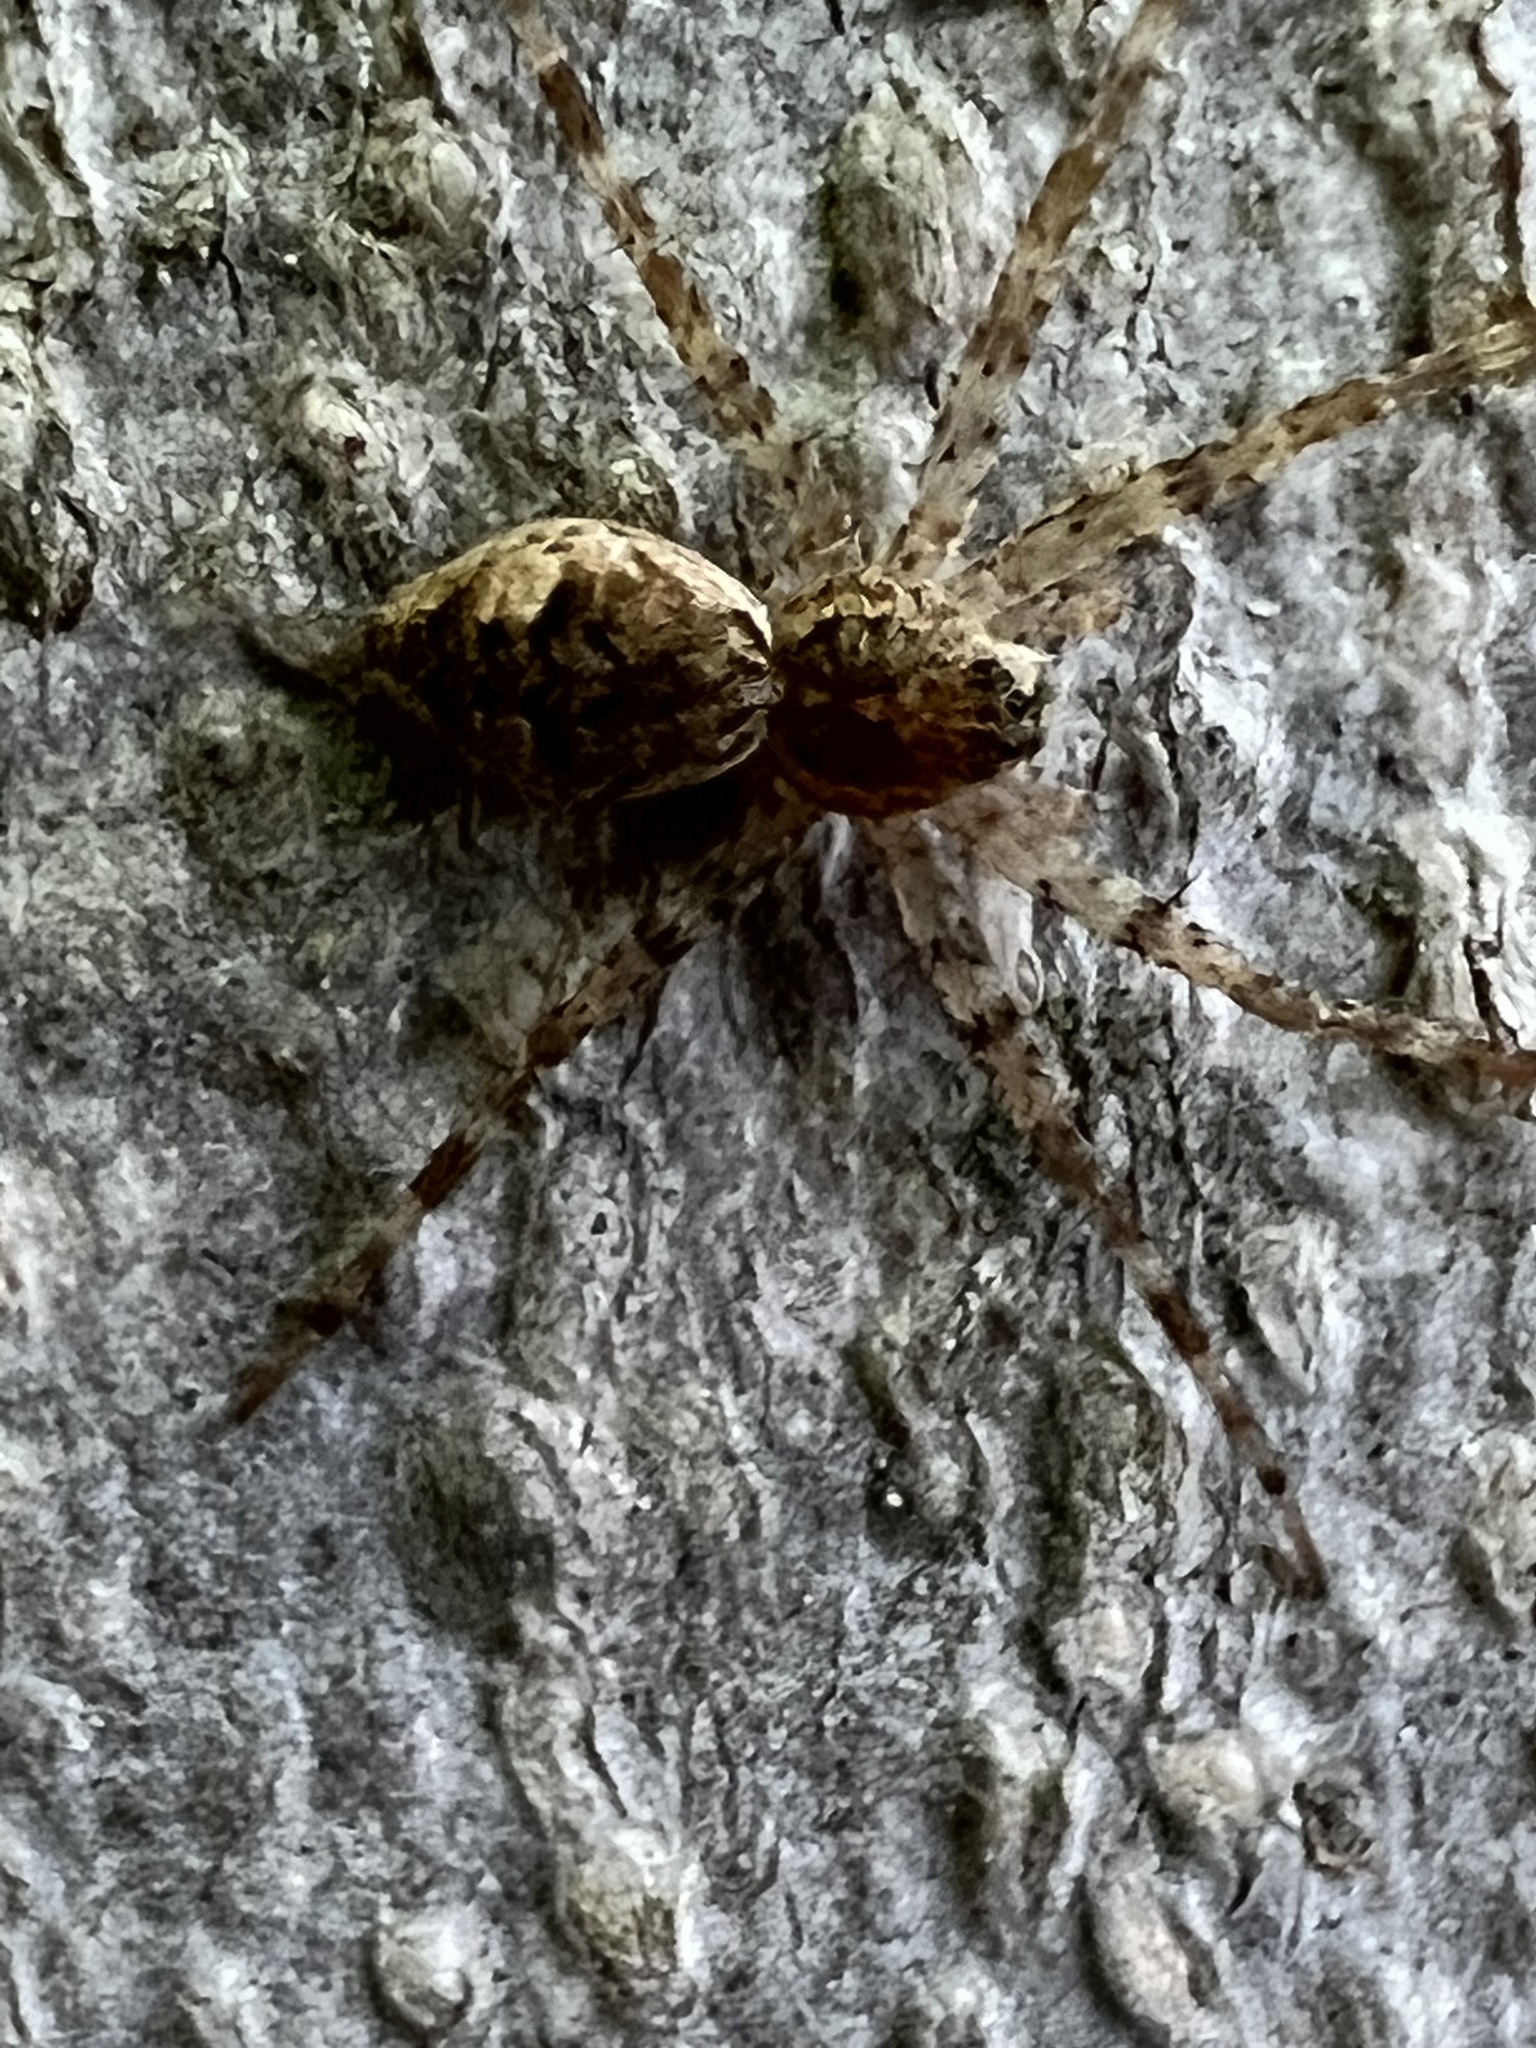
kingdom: Animalia
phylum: Arthropoda
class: Arachnida
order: Araneae
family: Pisauridae
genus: Dolomedes
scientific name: Dolomedes tenebrosus
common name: Dark fishing spider
